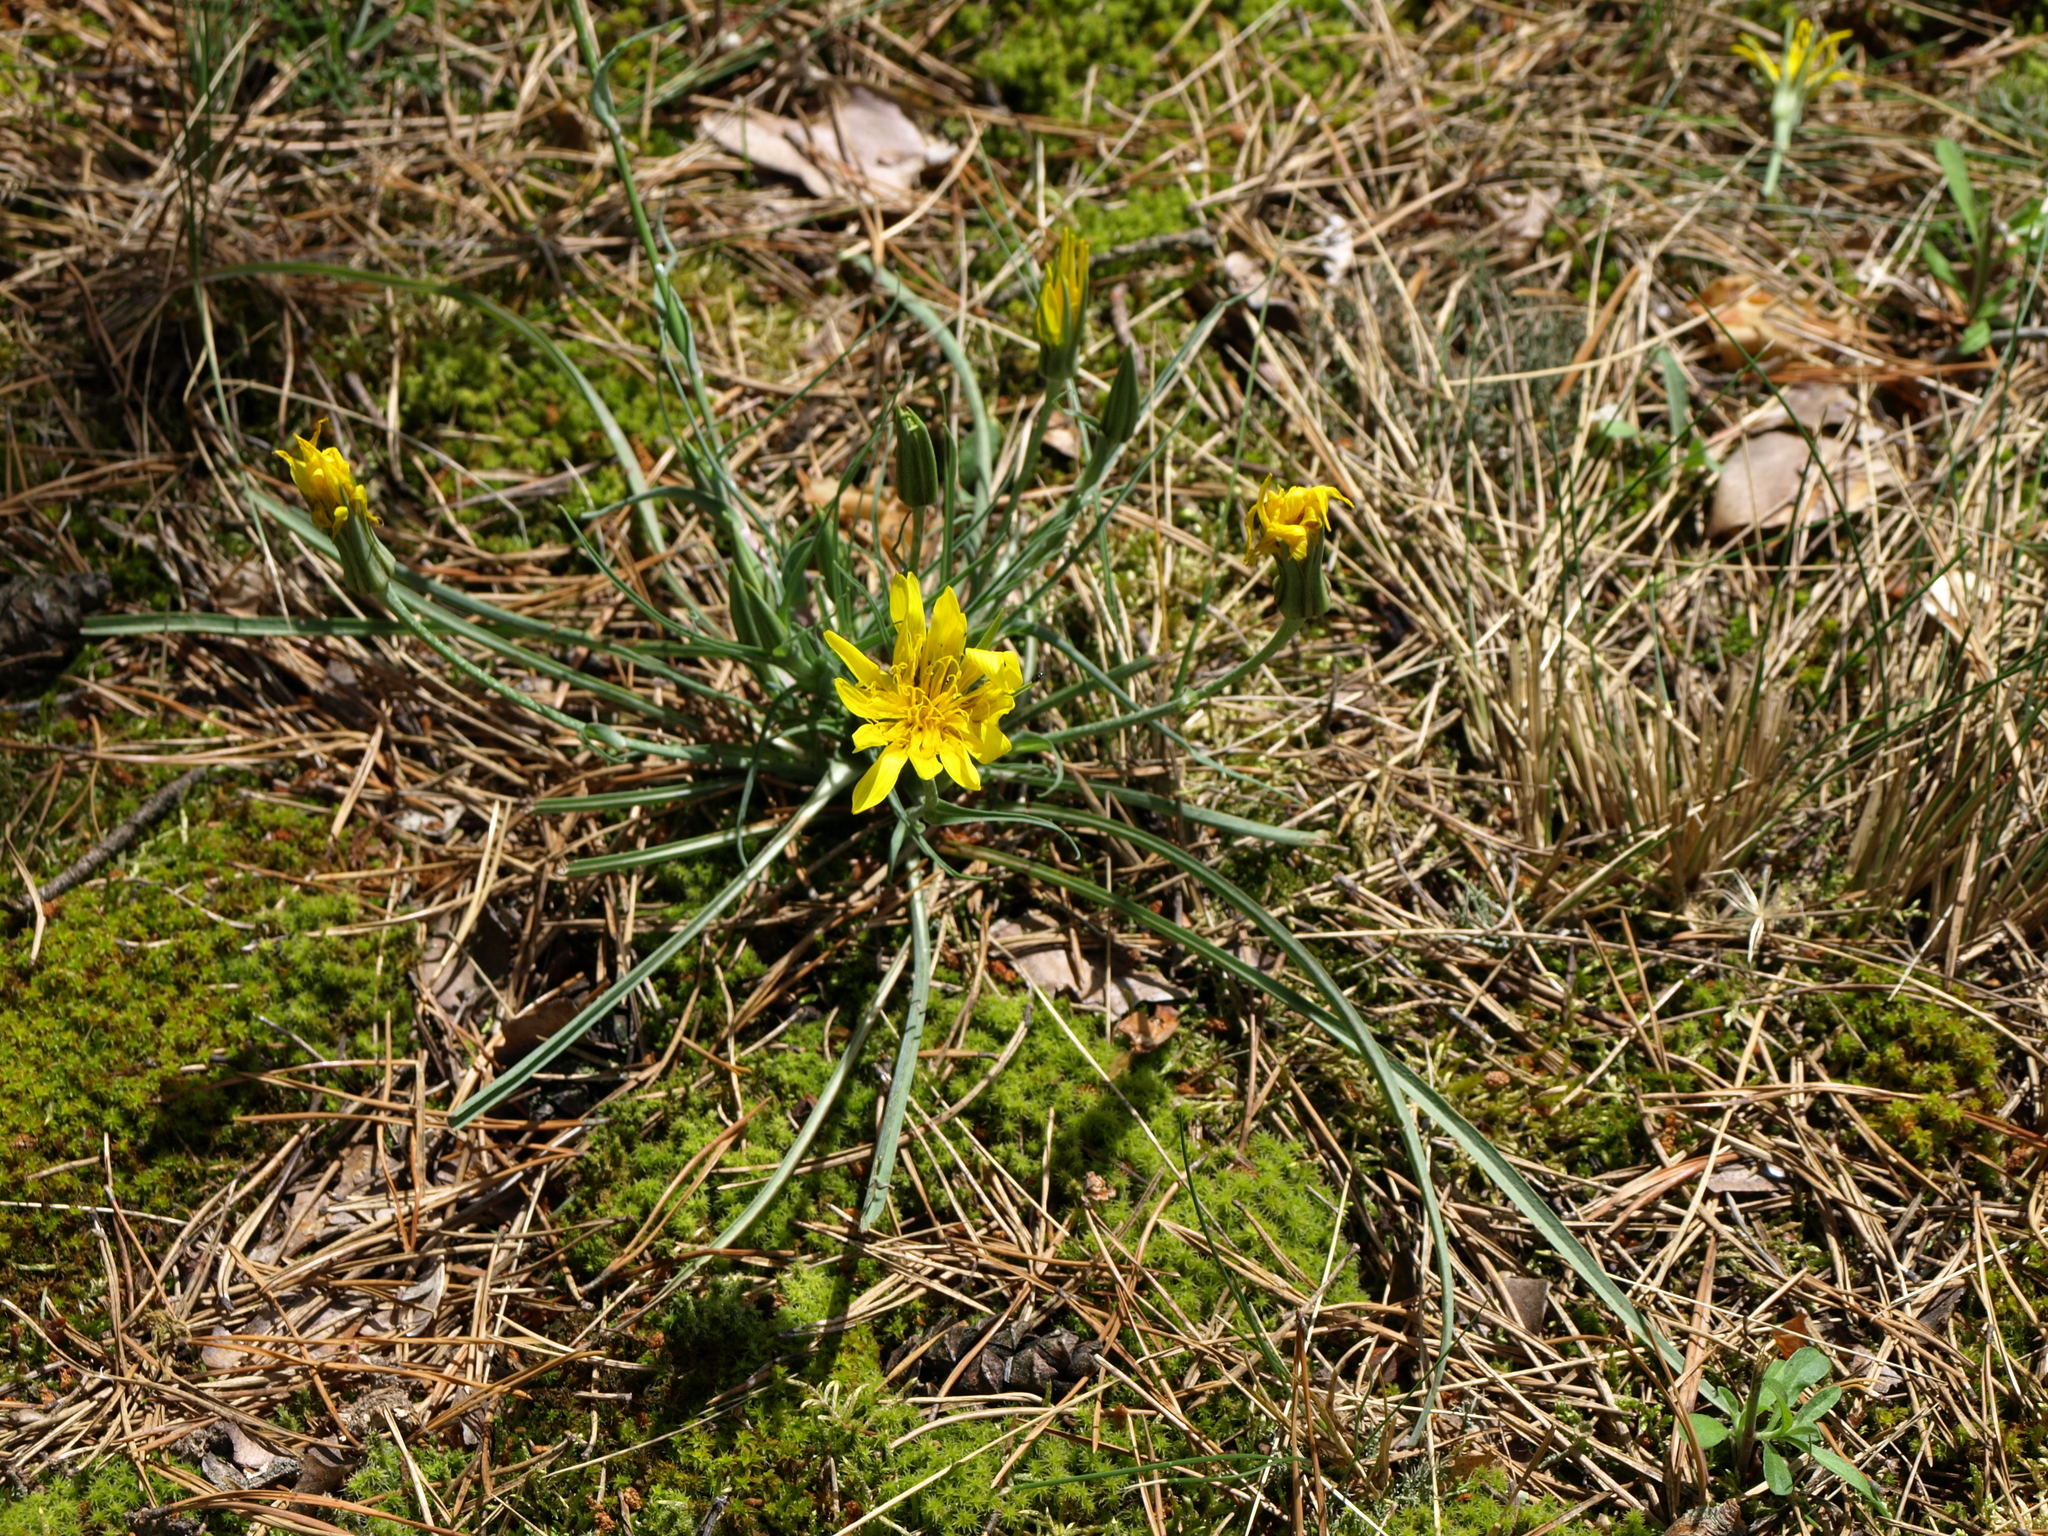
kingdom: Plantae
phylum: Tracheophyta
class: Magnoliopsida
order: Asterales
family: Asteraceae
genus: Tragopogon
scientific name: Tragopogon gorskianus
